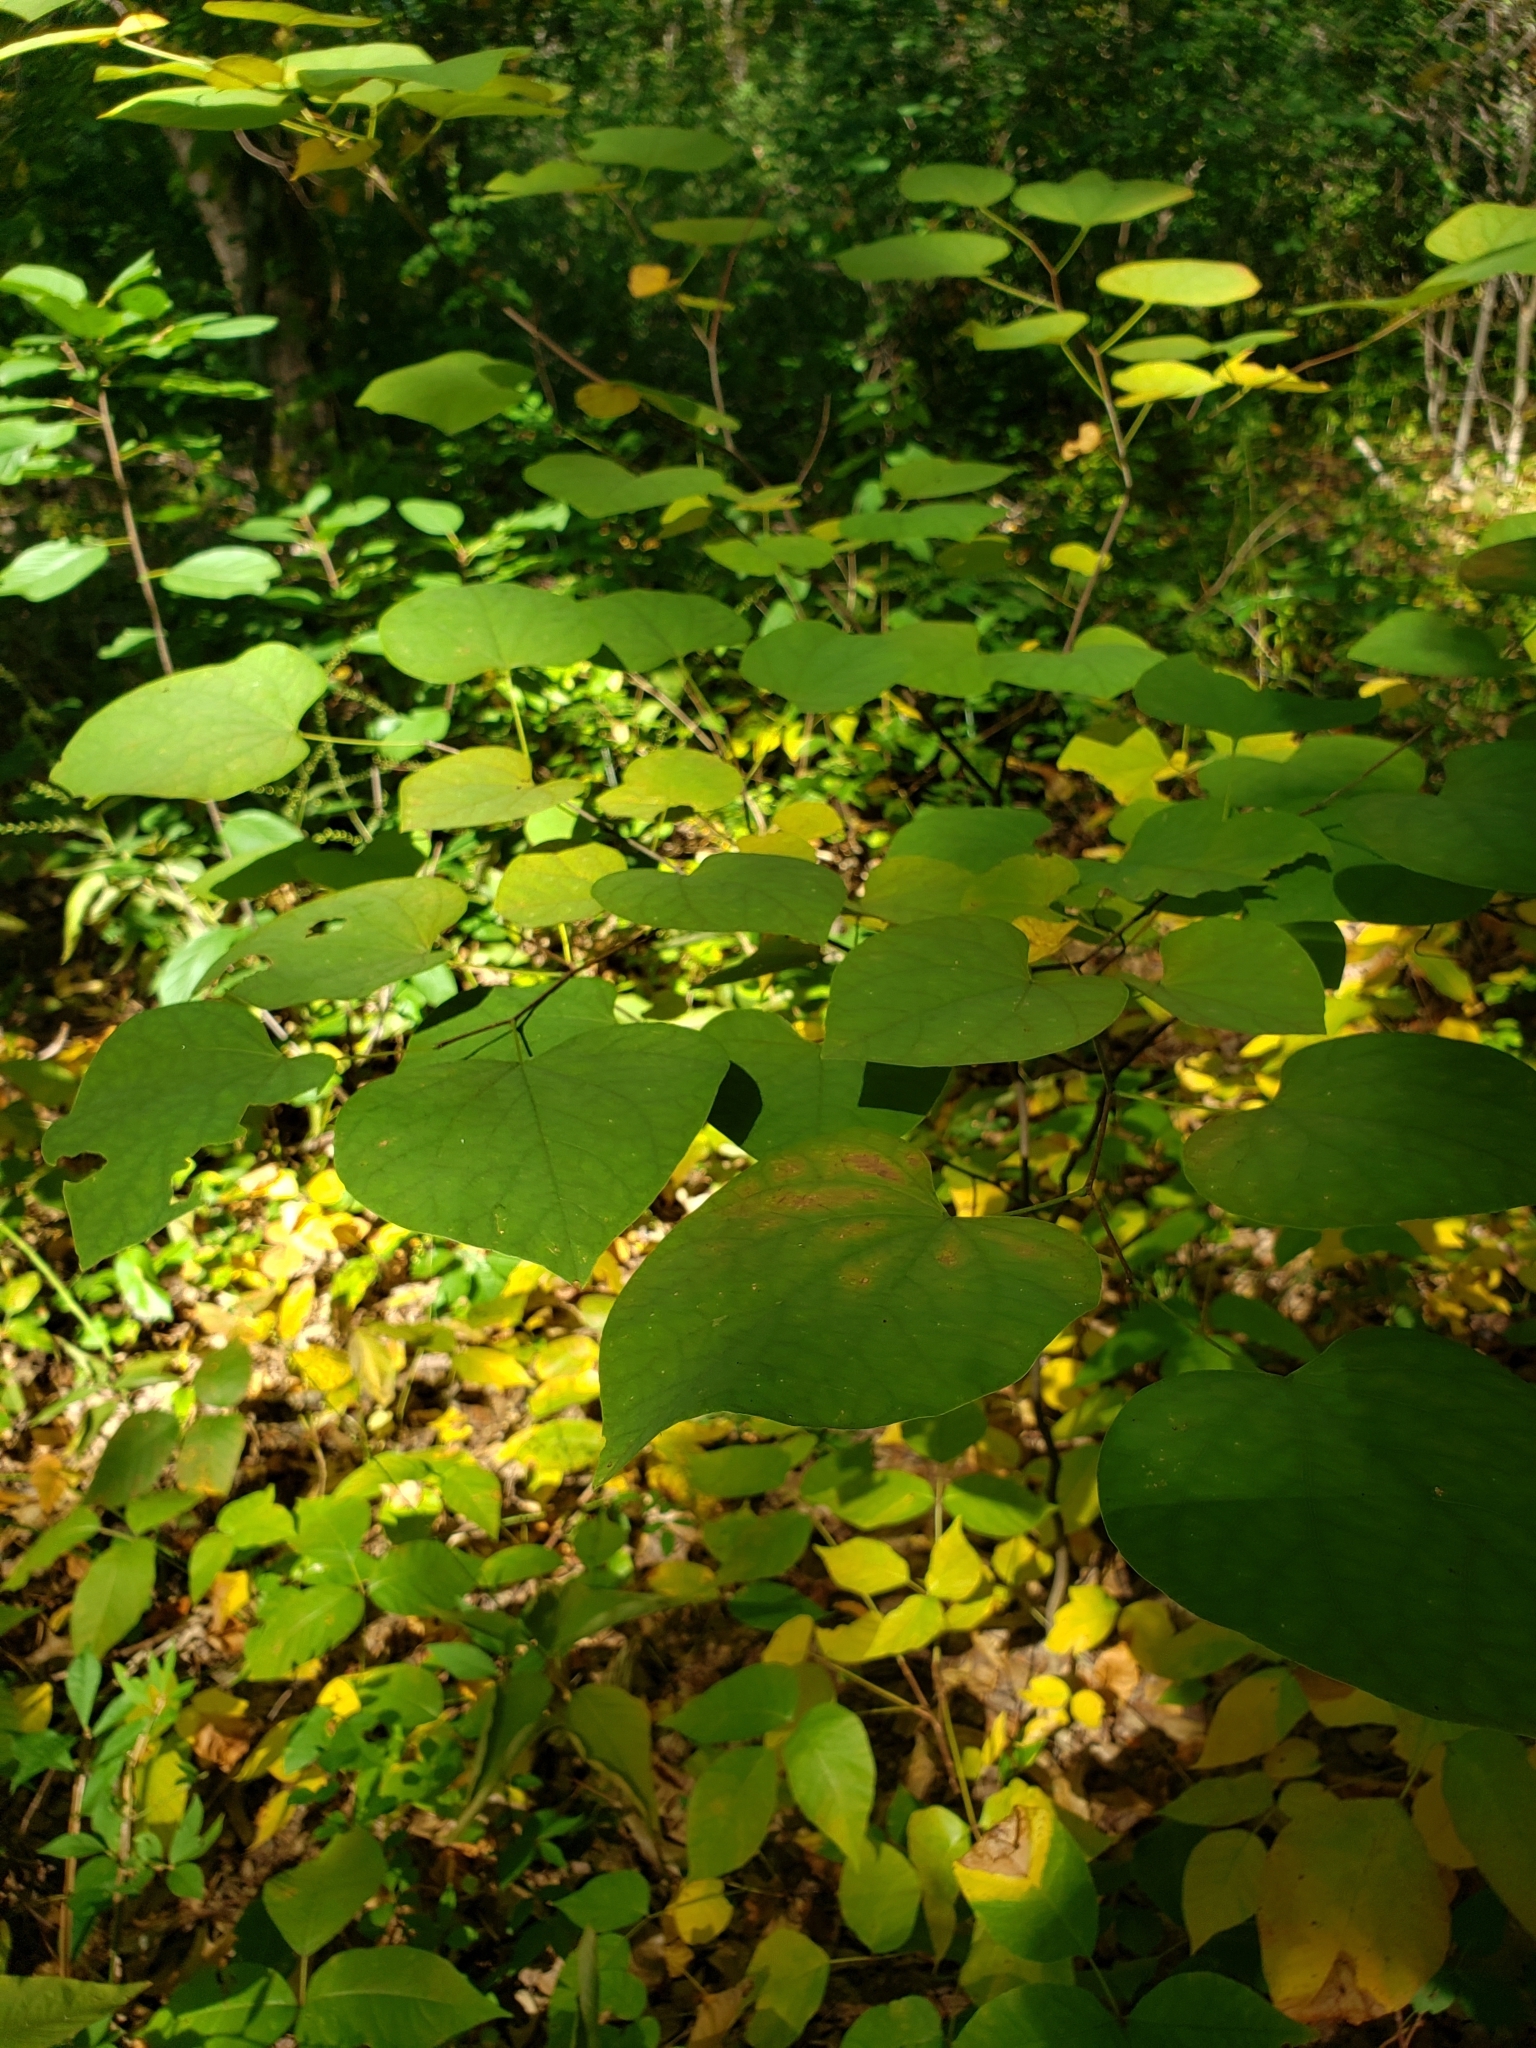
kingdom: Plantae
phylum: Tracheophyta
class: Magnoliopsida
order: Fabales
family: Fabaceae
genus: Cercis
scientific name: Cercis canadensis
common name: Eastern redbud
